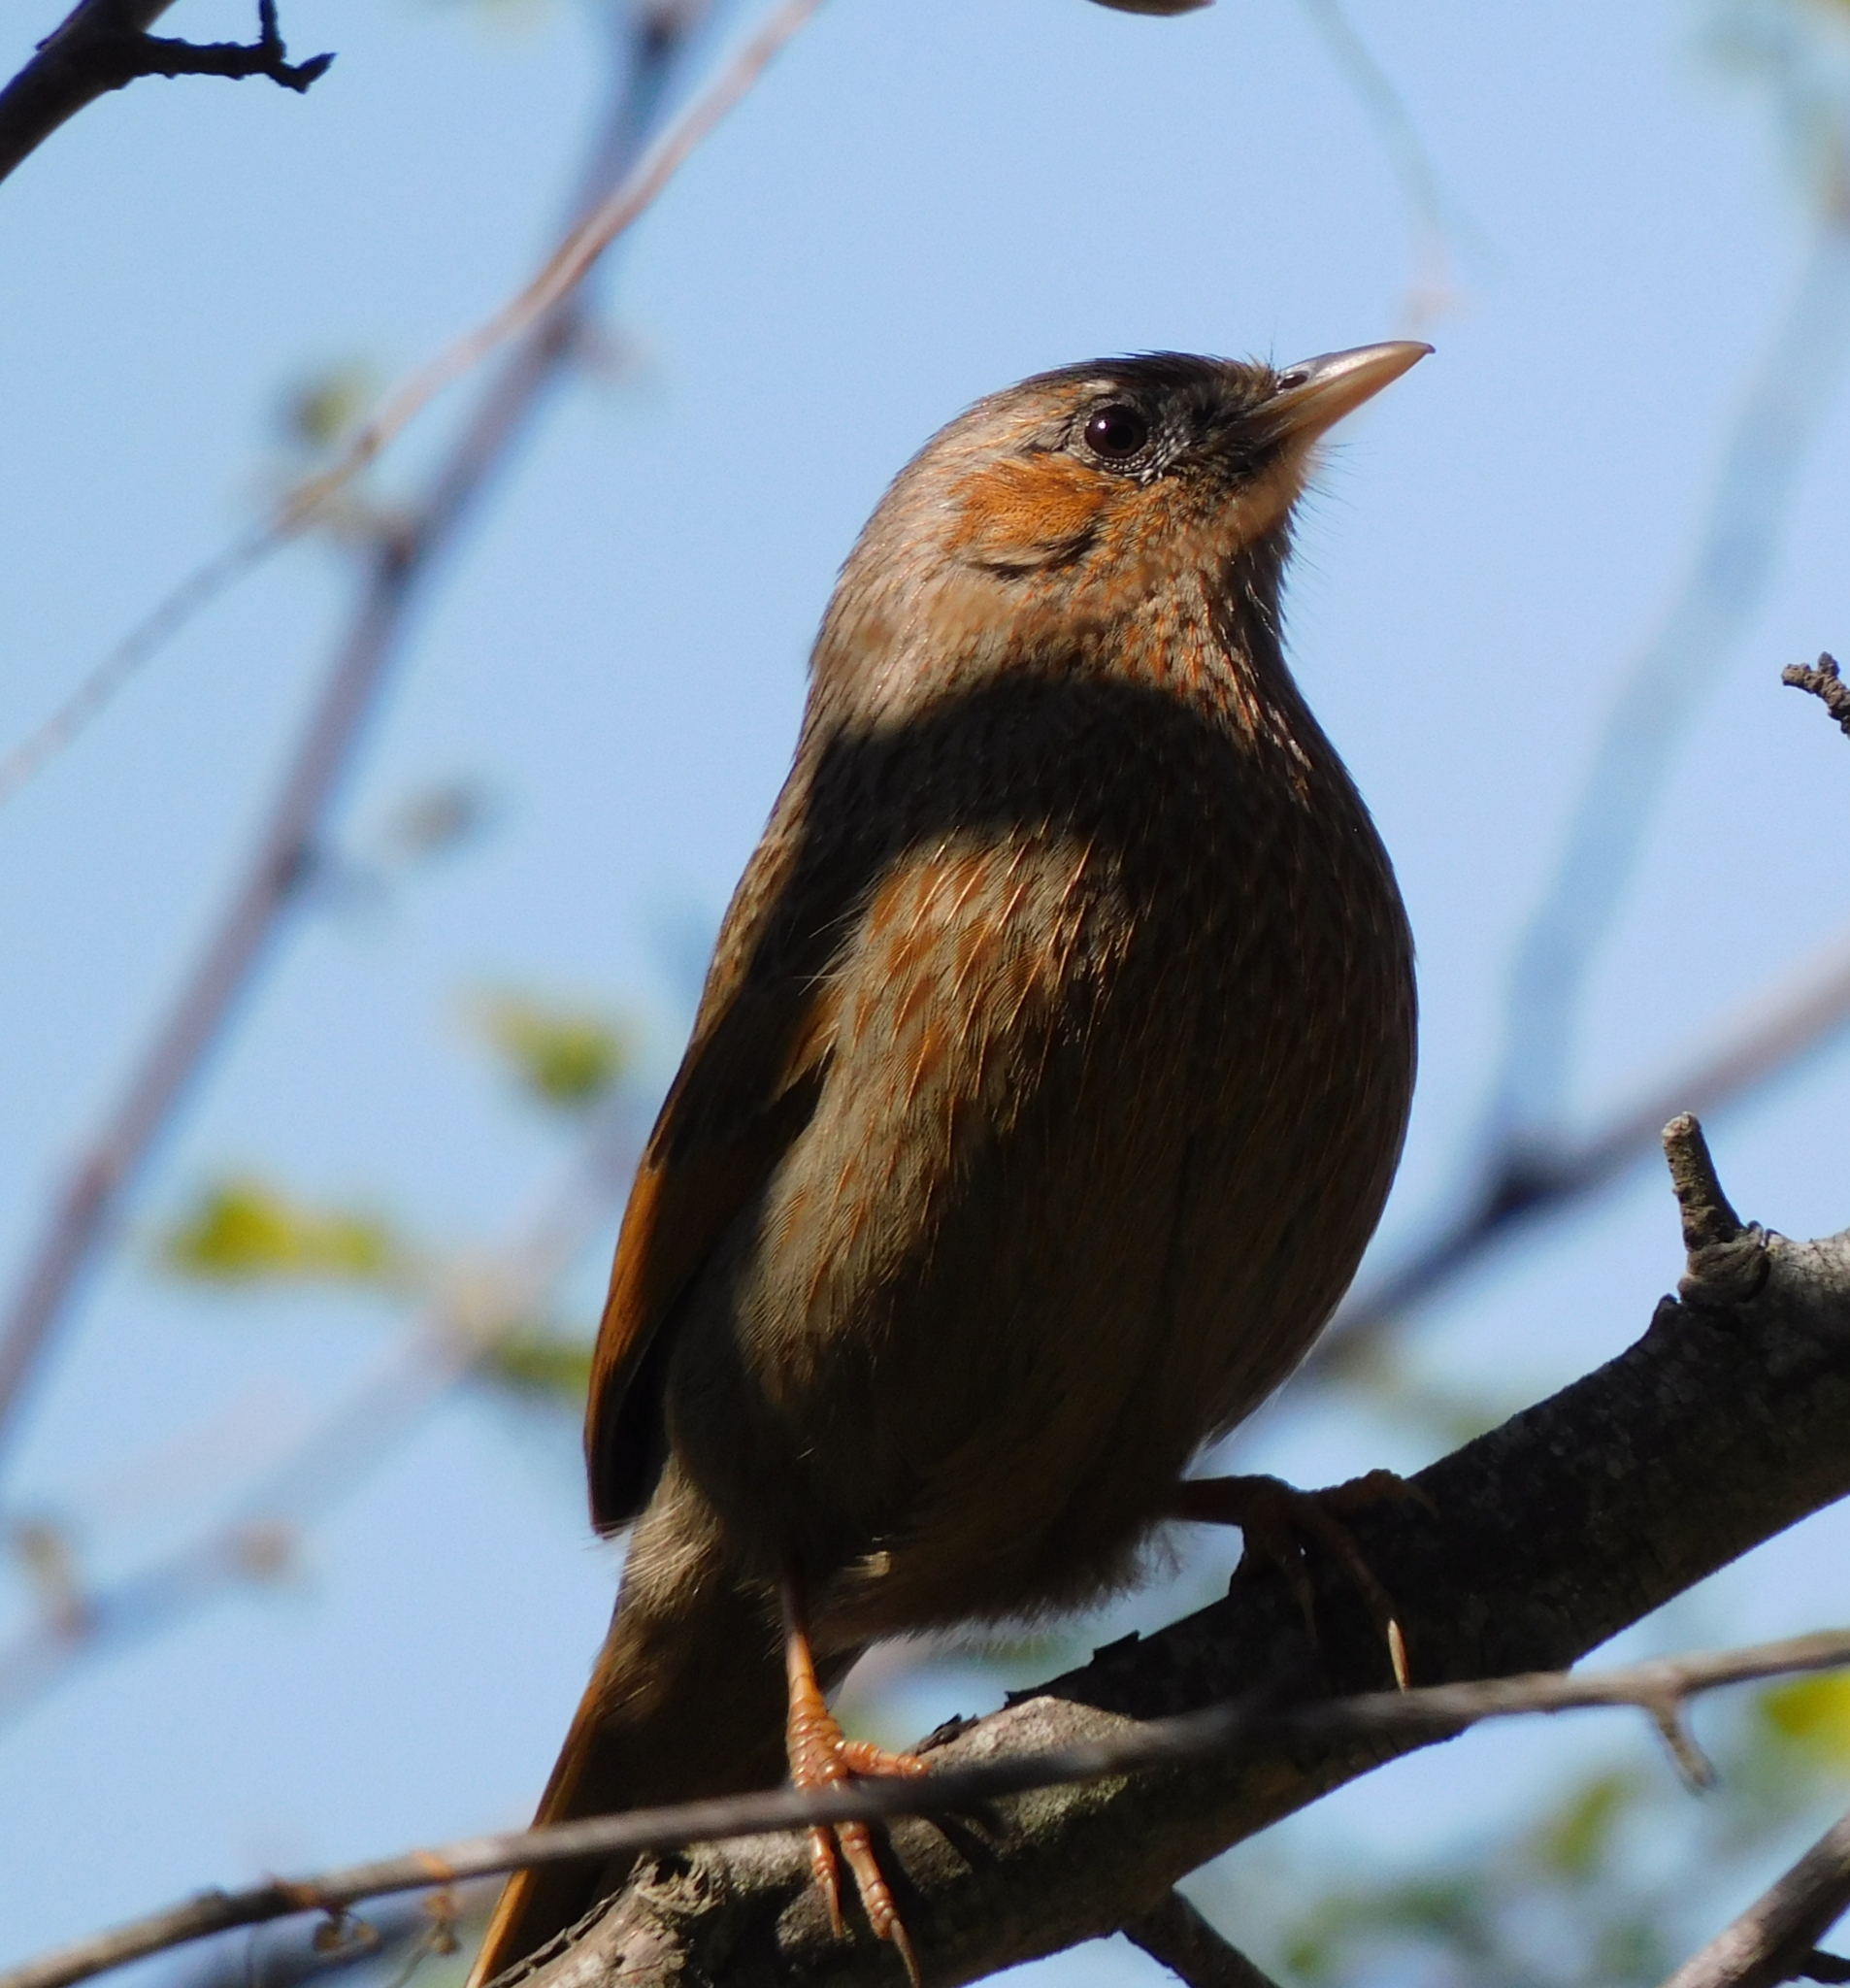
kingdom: Animalia
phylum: Chordata
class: Aves
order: Passeriformes
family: Leiothrichidae
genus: Trochalopteron
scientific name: Trochalopteron lineatum
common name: Streaked laughingthrush
